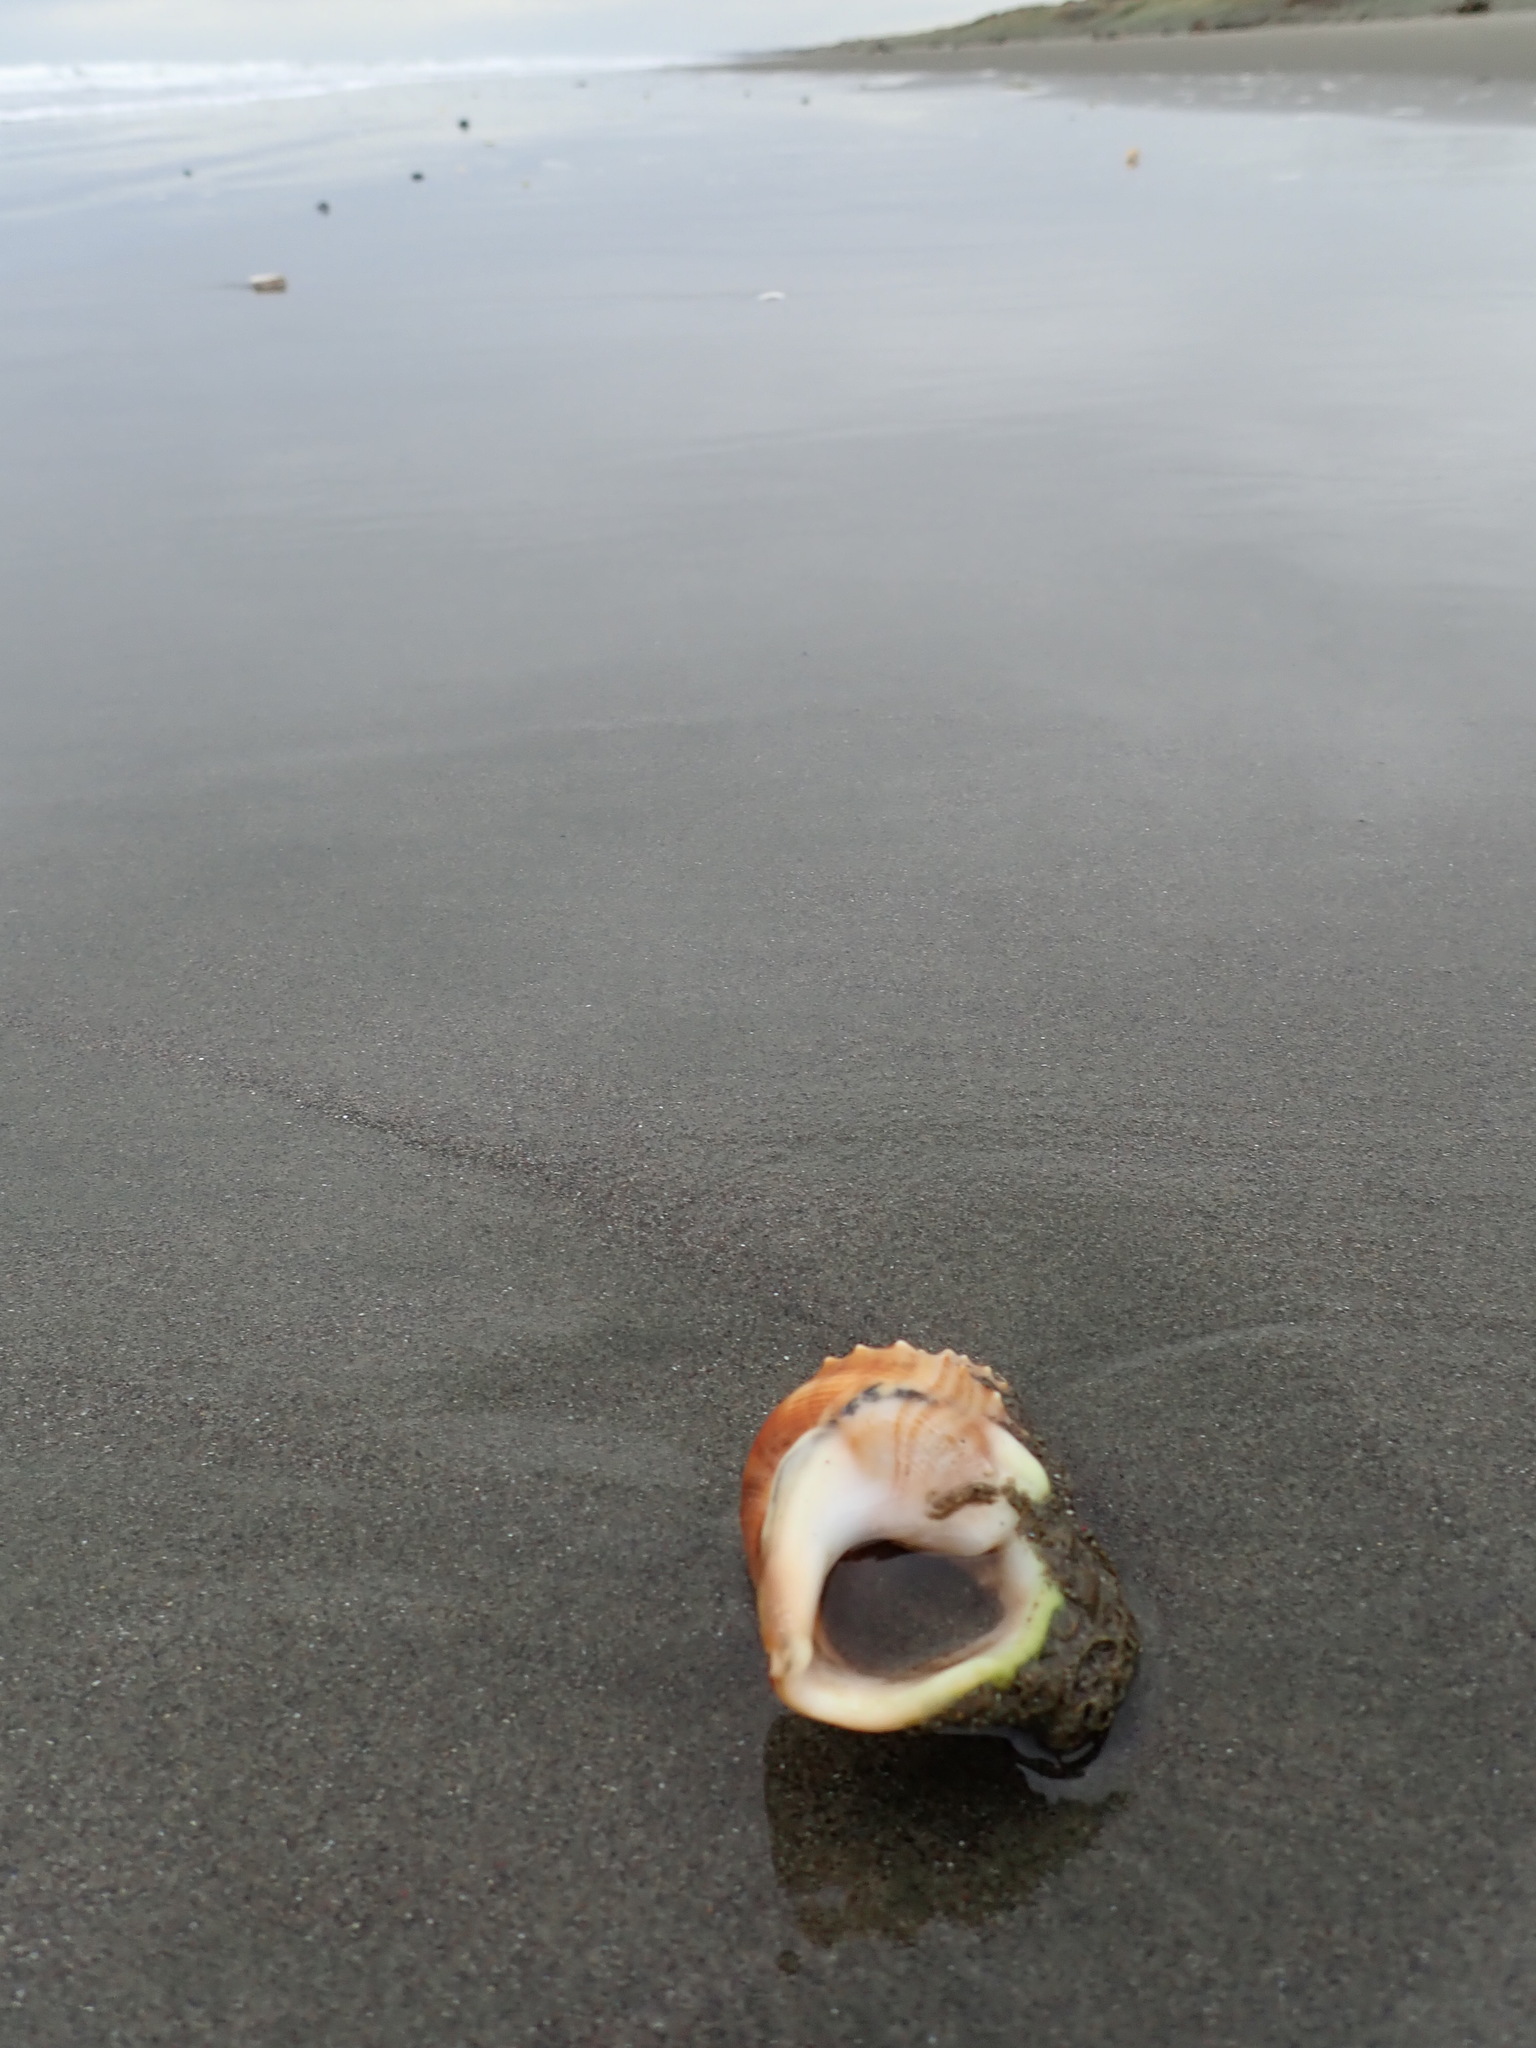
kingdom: Animalia
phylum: Mollusca
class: Gastropoda
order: Littorinimorpha
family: Struthiolariidae
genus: Struthiolaria
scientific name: Struthiolaria papulosa
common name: Large ostrich foot
